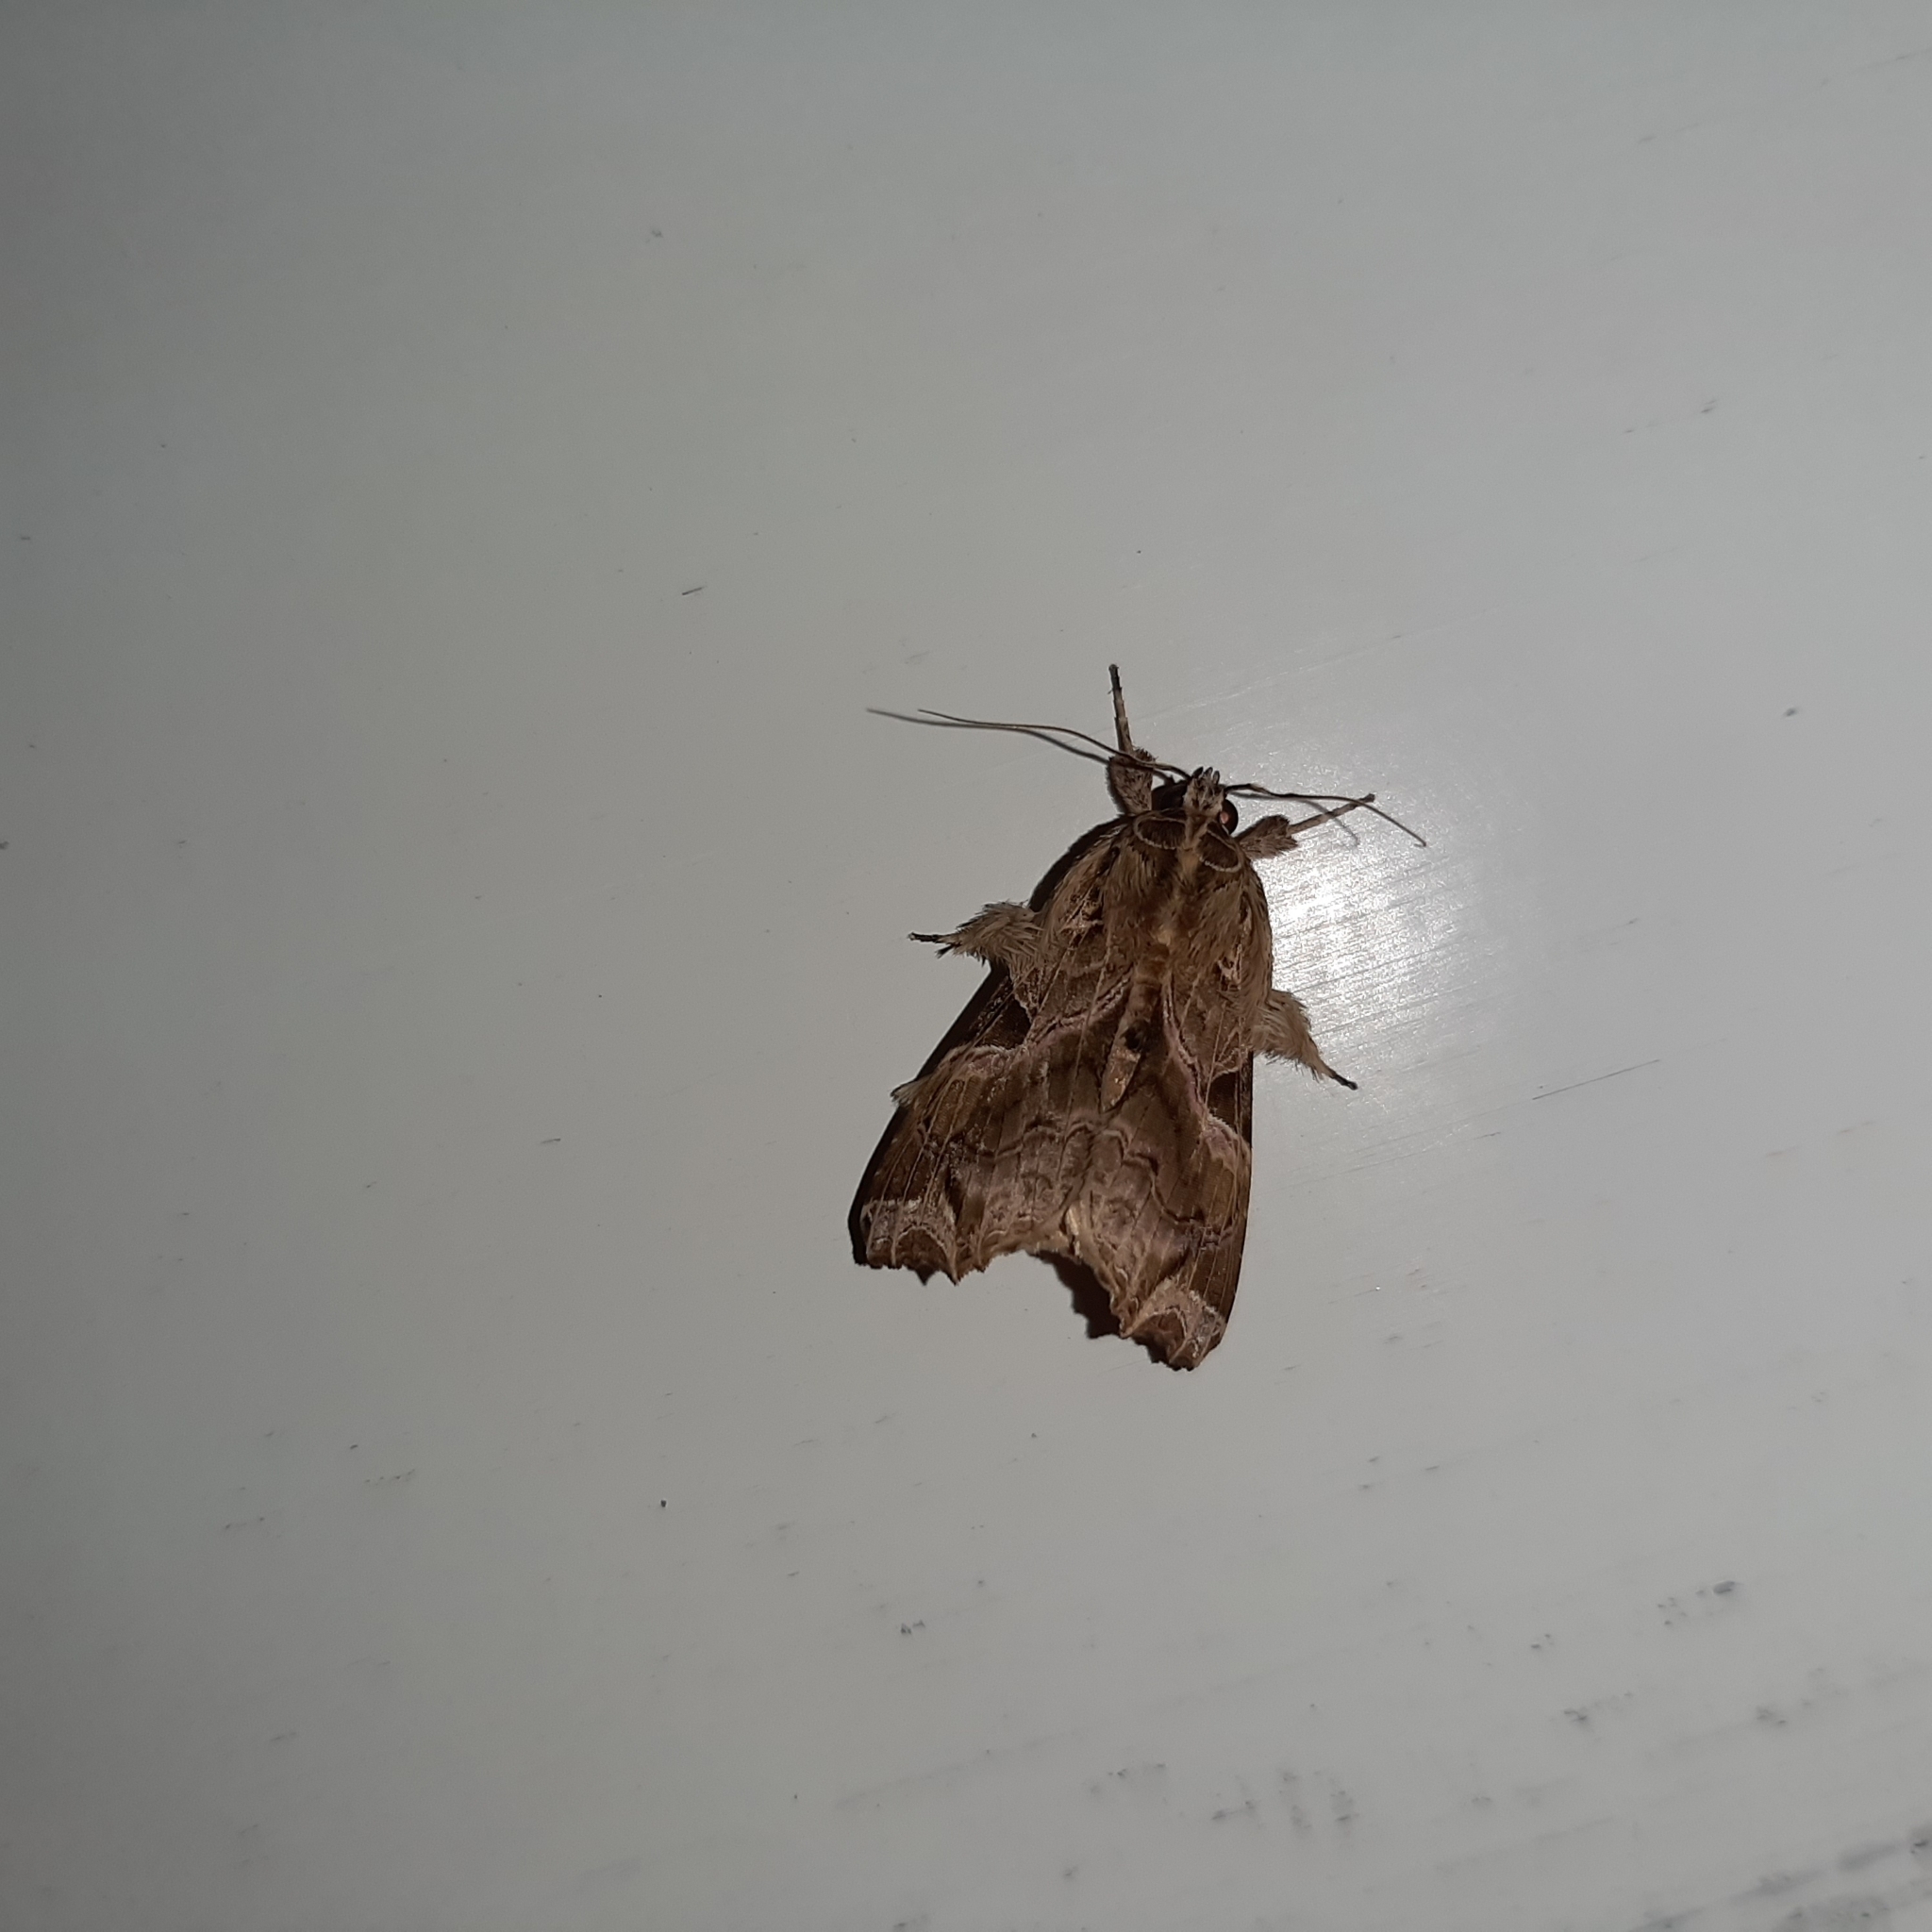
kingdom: Animalia
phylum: Arthropoda
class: Insecta
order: Lepidoptera
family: Noctuidae
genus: Callopistria
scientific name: Callopistria floridensis
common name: Florida fern moth
